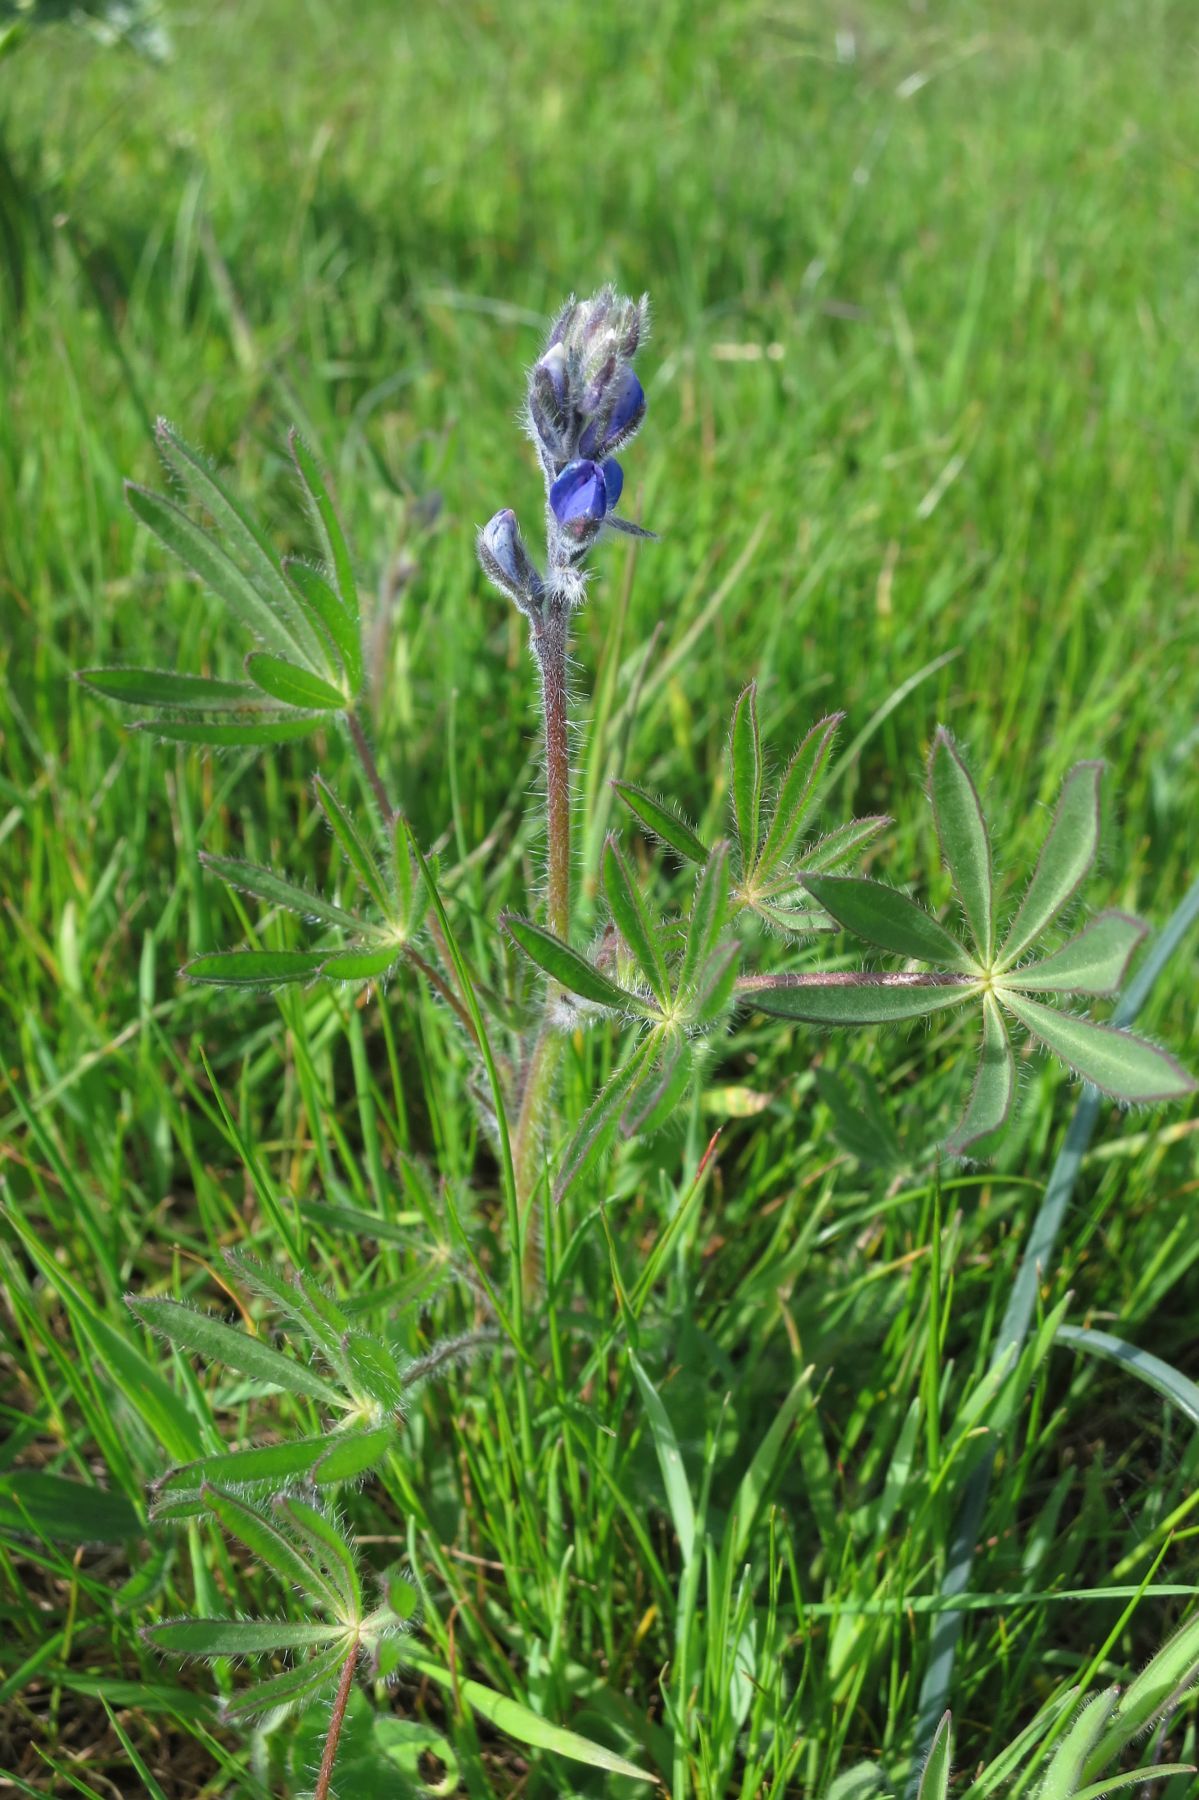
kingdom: Plantae
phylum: Tracheophyta
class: Magnoliopsida
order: Fabales
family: Fabaceae
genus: Lupinus
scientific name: Lupinus bicolor
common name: Miniature lupine
